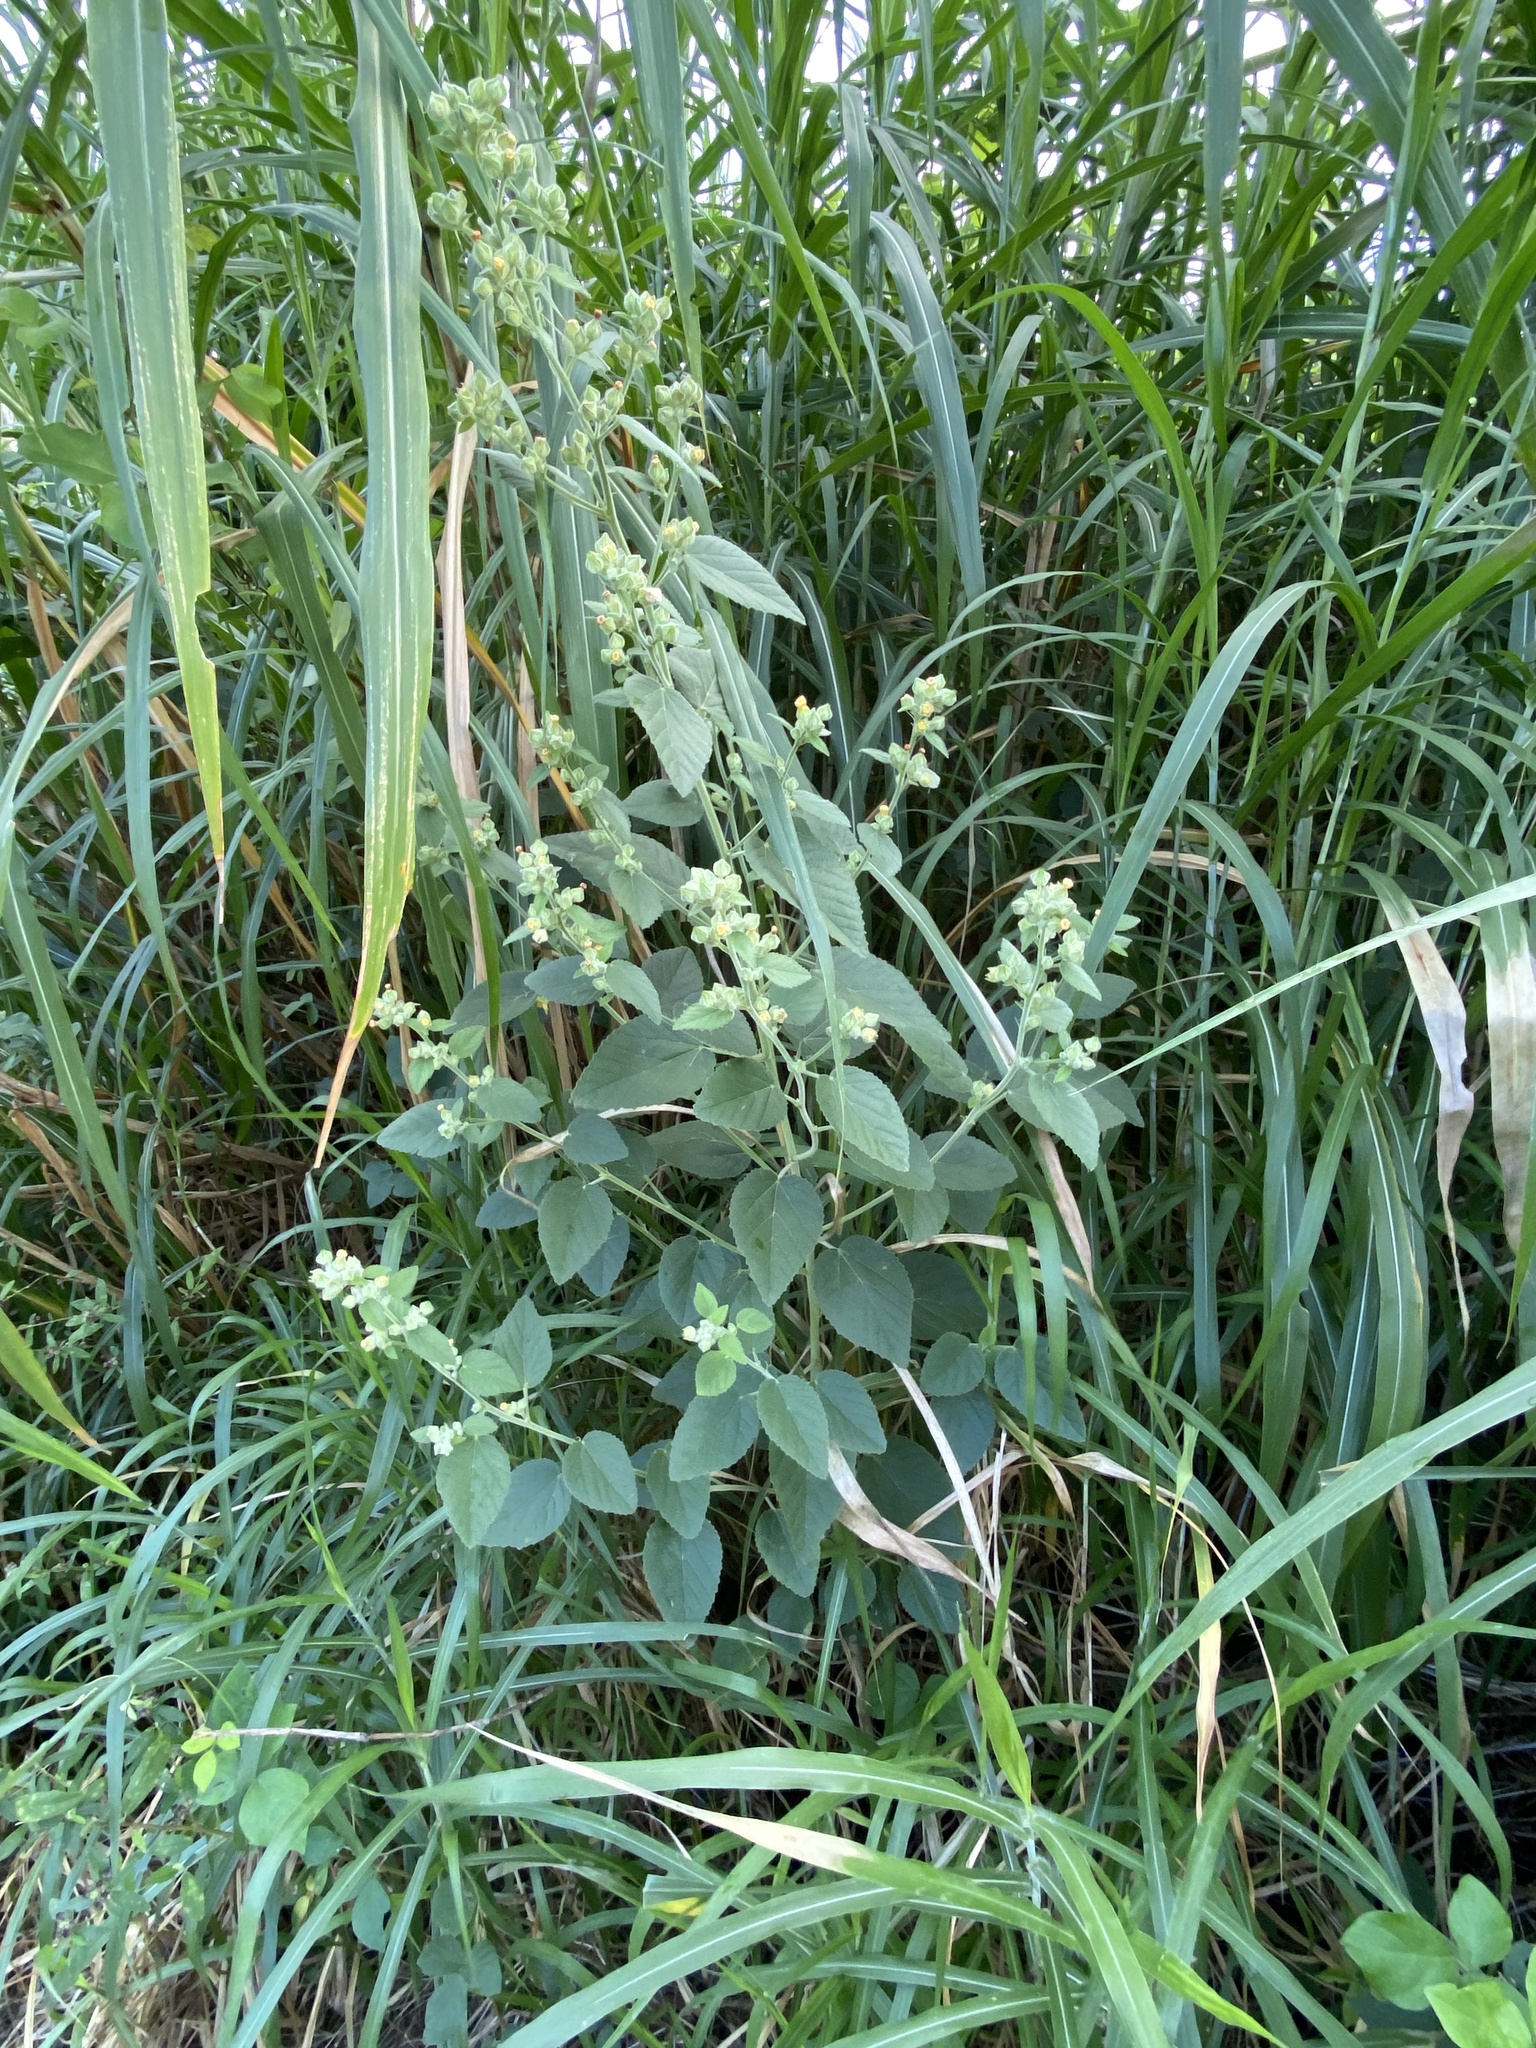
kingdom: Plantae
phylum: Tracheophyta
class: Magnoliopsida
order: Malvales
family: Malvaceae
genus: Sida
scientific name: Sida cordifolia
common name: Ilima
